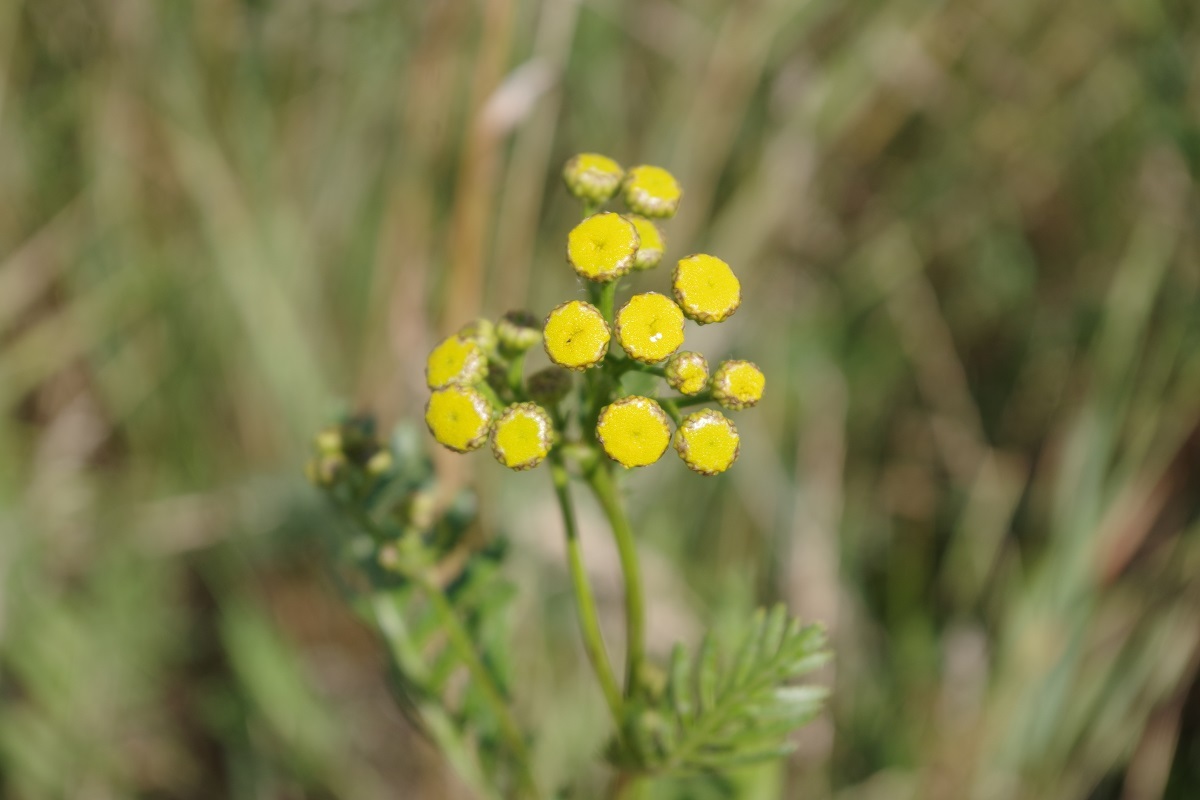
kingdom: Plantae
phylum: Tracheophyta
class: Magnoliopsida
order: Asterales
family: Asteraceae
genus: Tanacetum
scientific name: Tanacetum vulgare
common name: Common tansy
